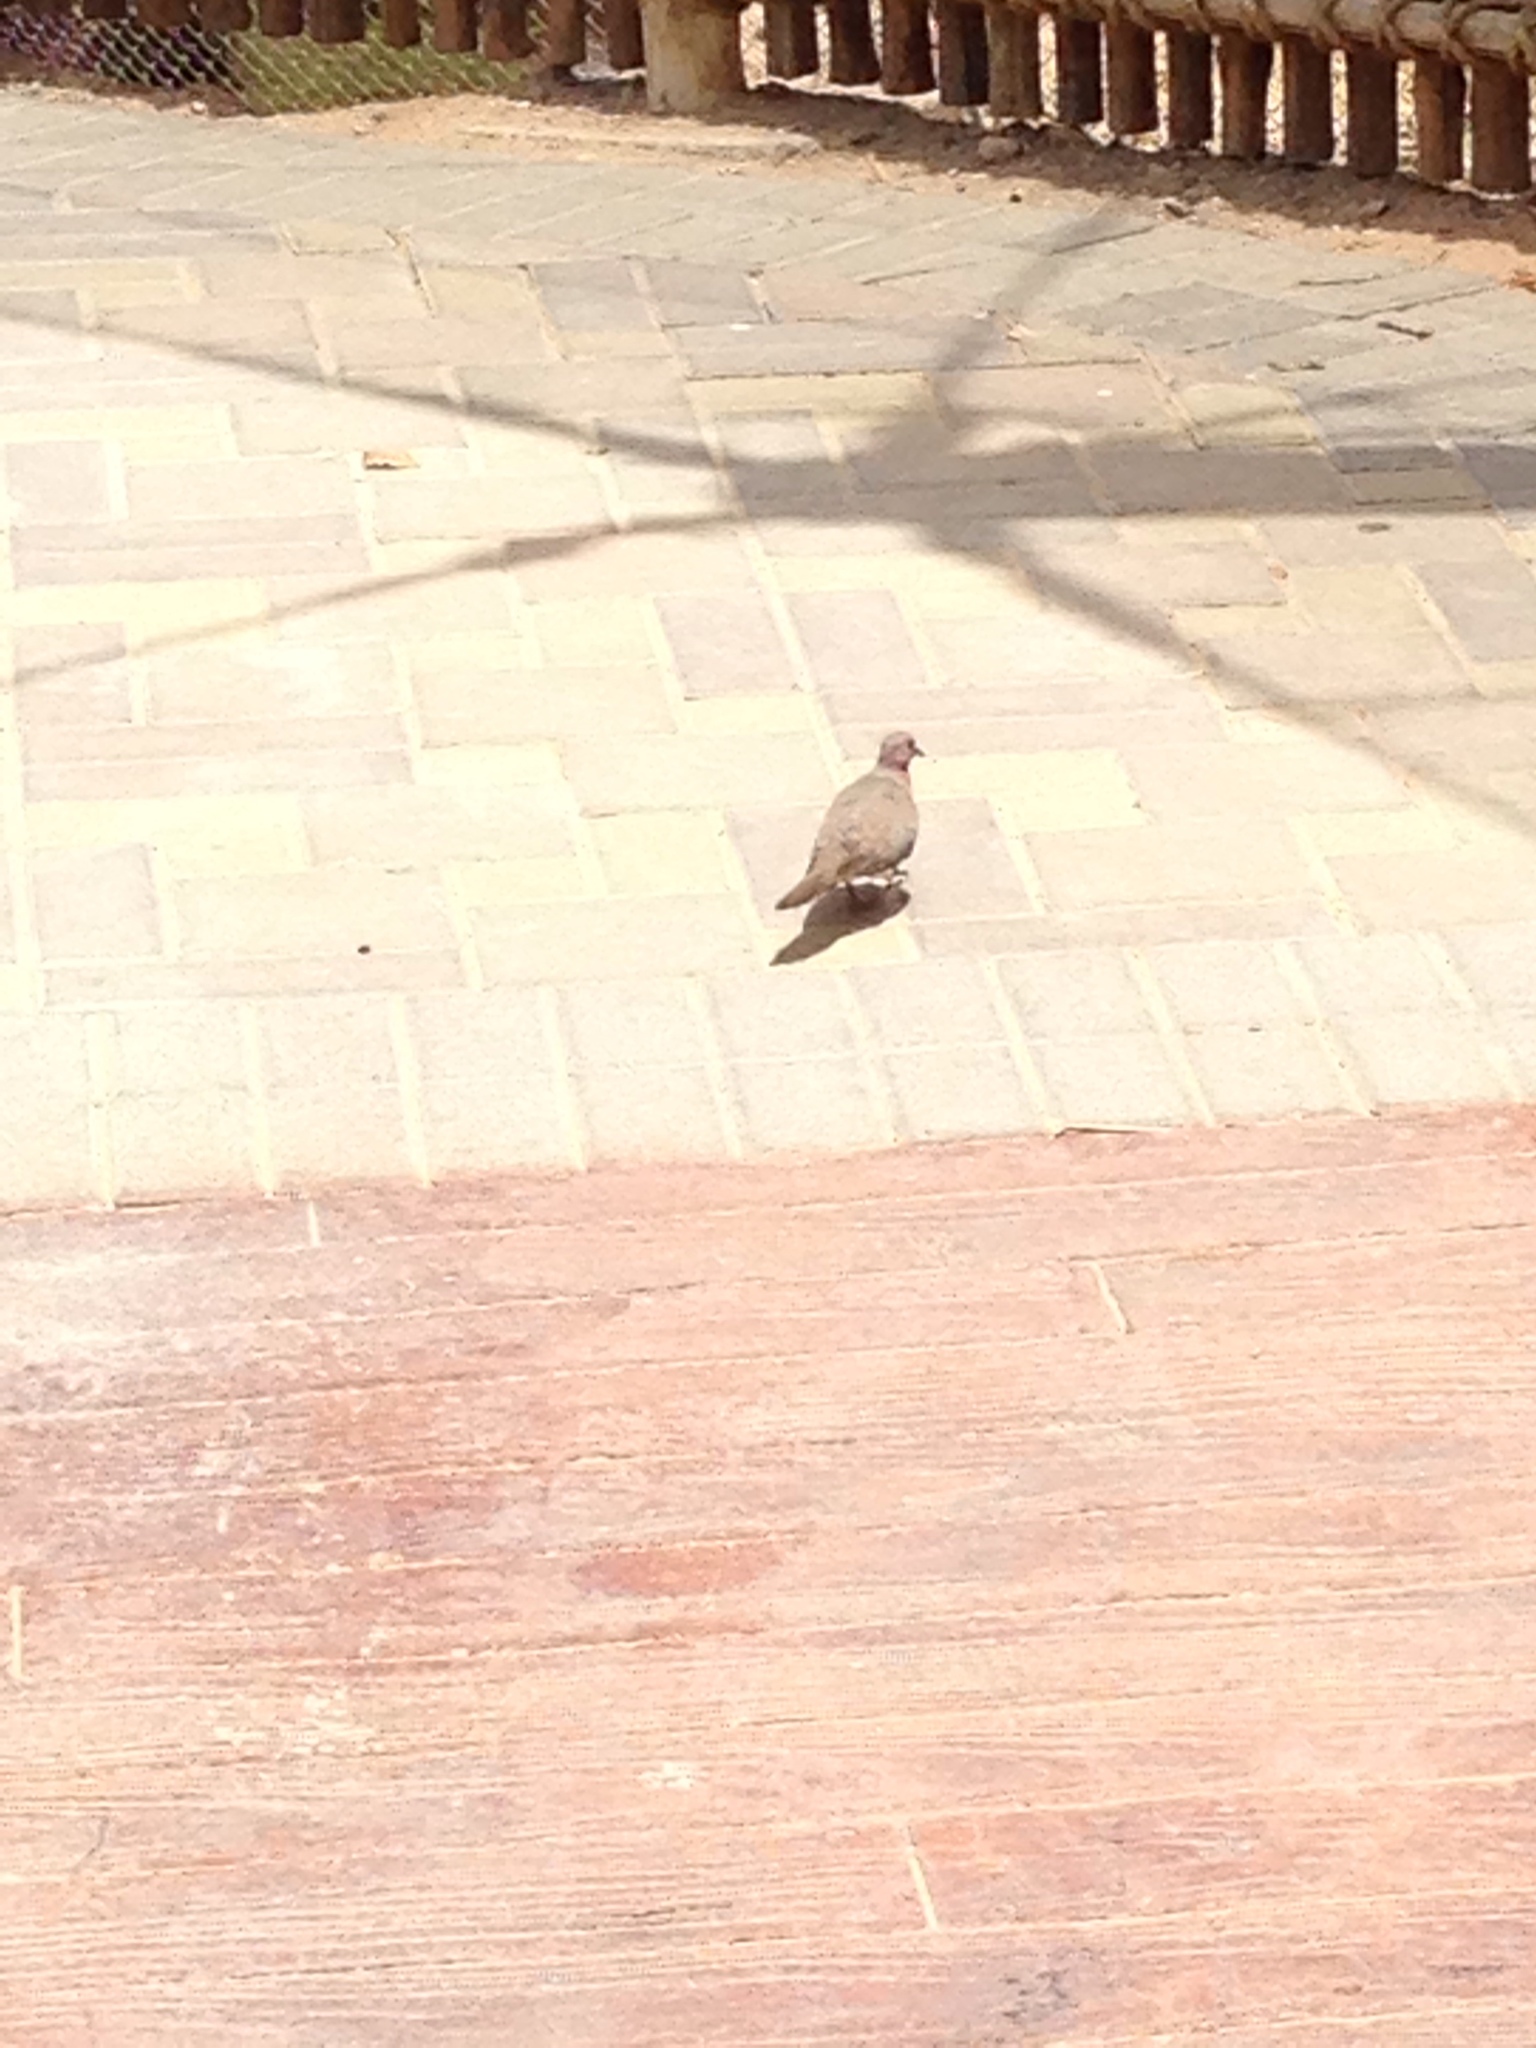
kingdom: Animalia
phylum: Chordata
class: Aves
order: Columbiformes
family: Columbidae
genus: Spilopelia
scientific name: Spilopelia senegalensis
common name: Laughing dove
